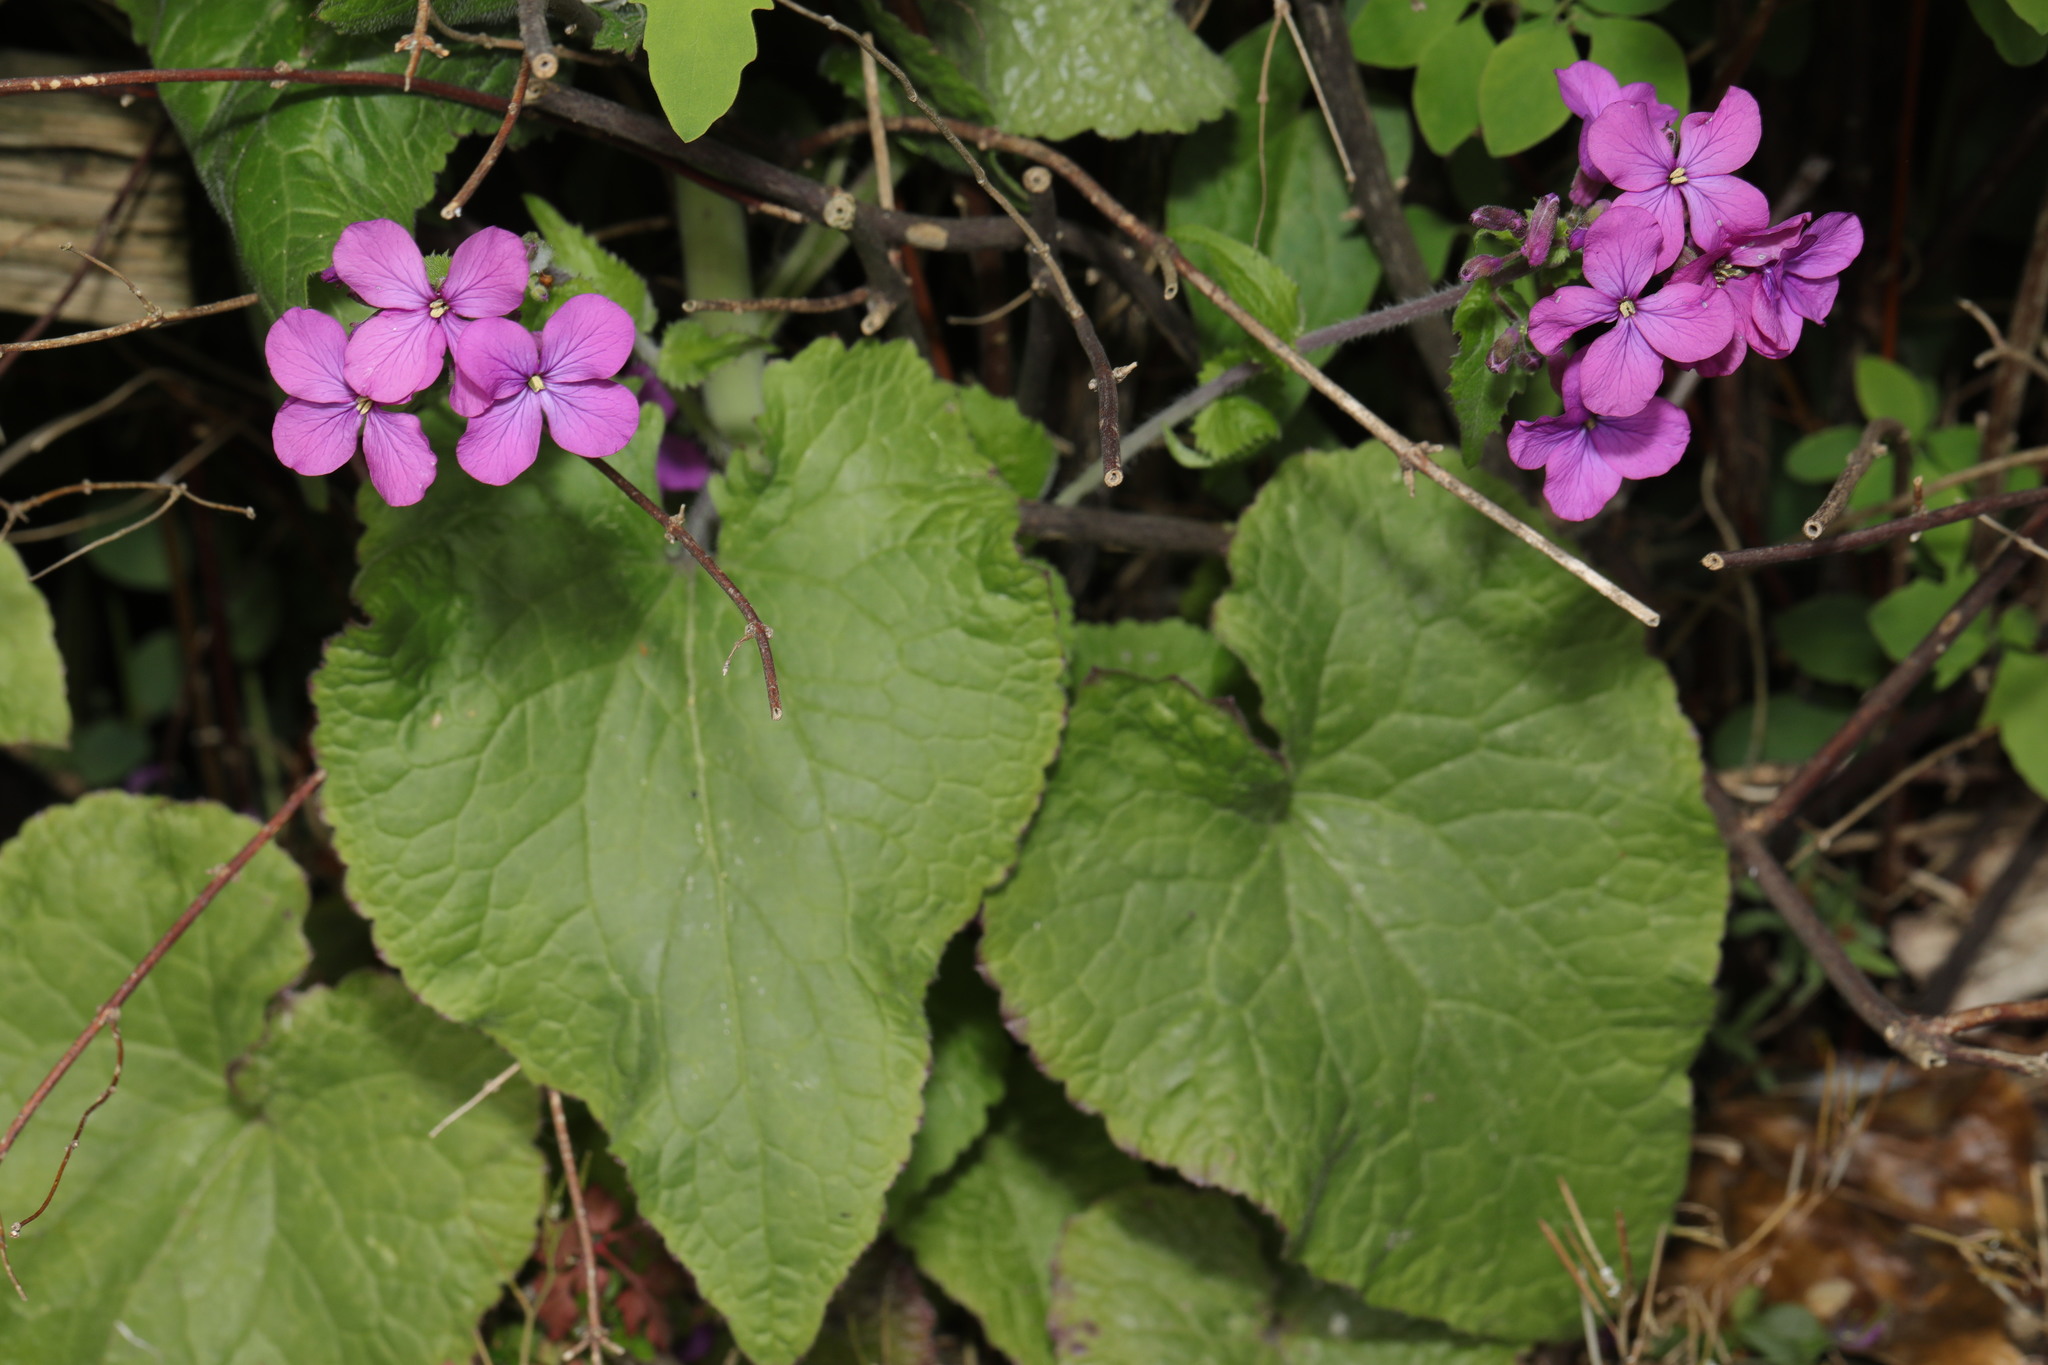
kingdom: Plantae
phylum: Tracheophyta
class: Magnoliopsida
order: Brassicales
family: Brassicaceae
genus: Lunaria
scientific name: Lunaria annua
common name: Honesty
